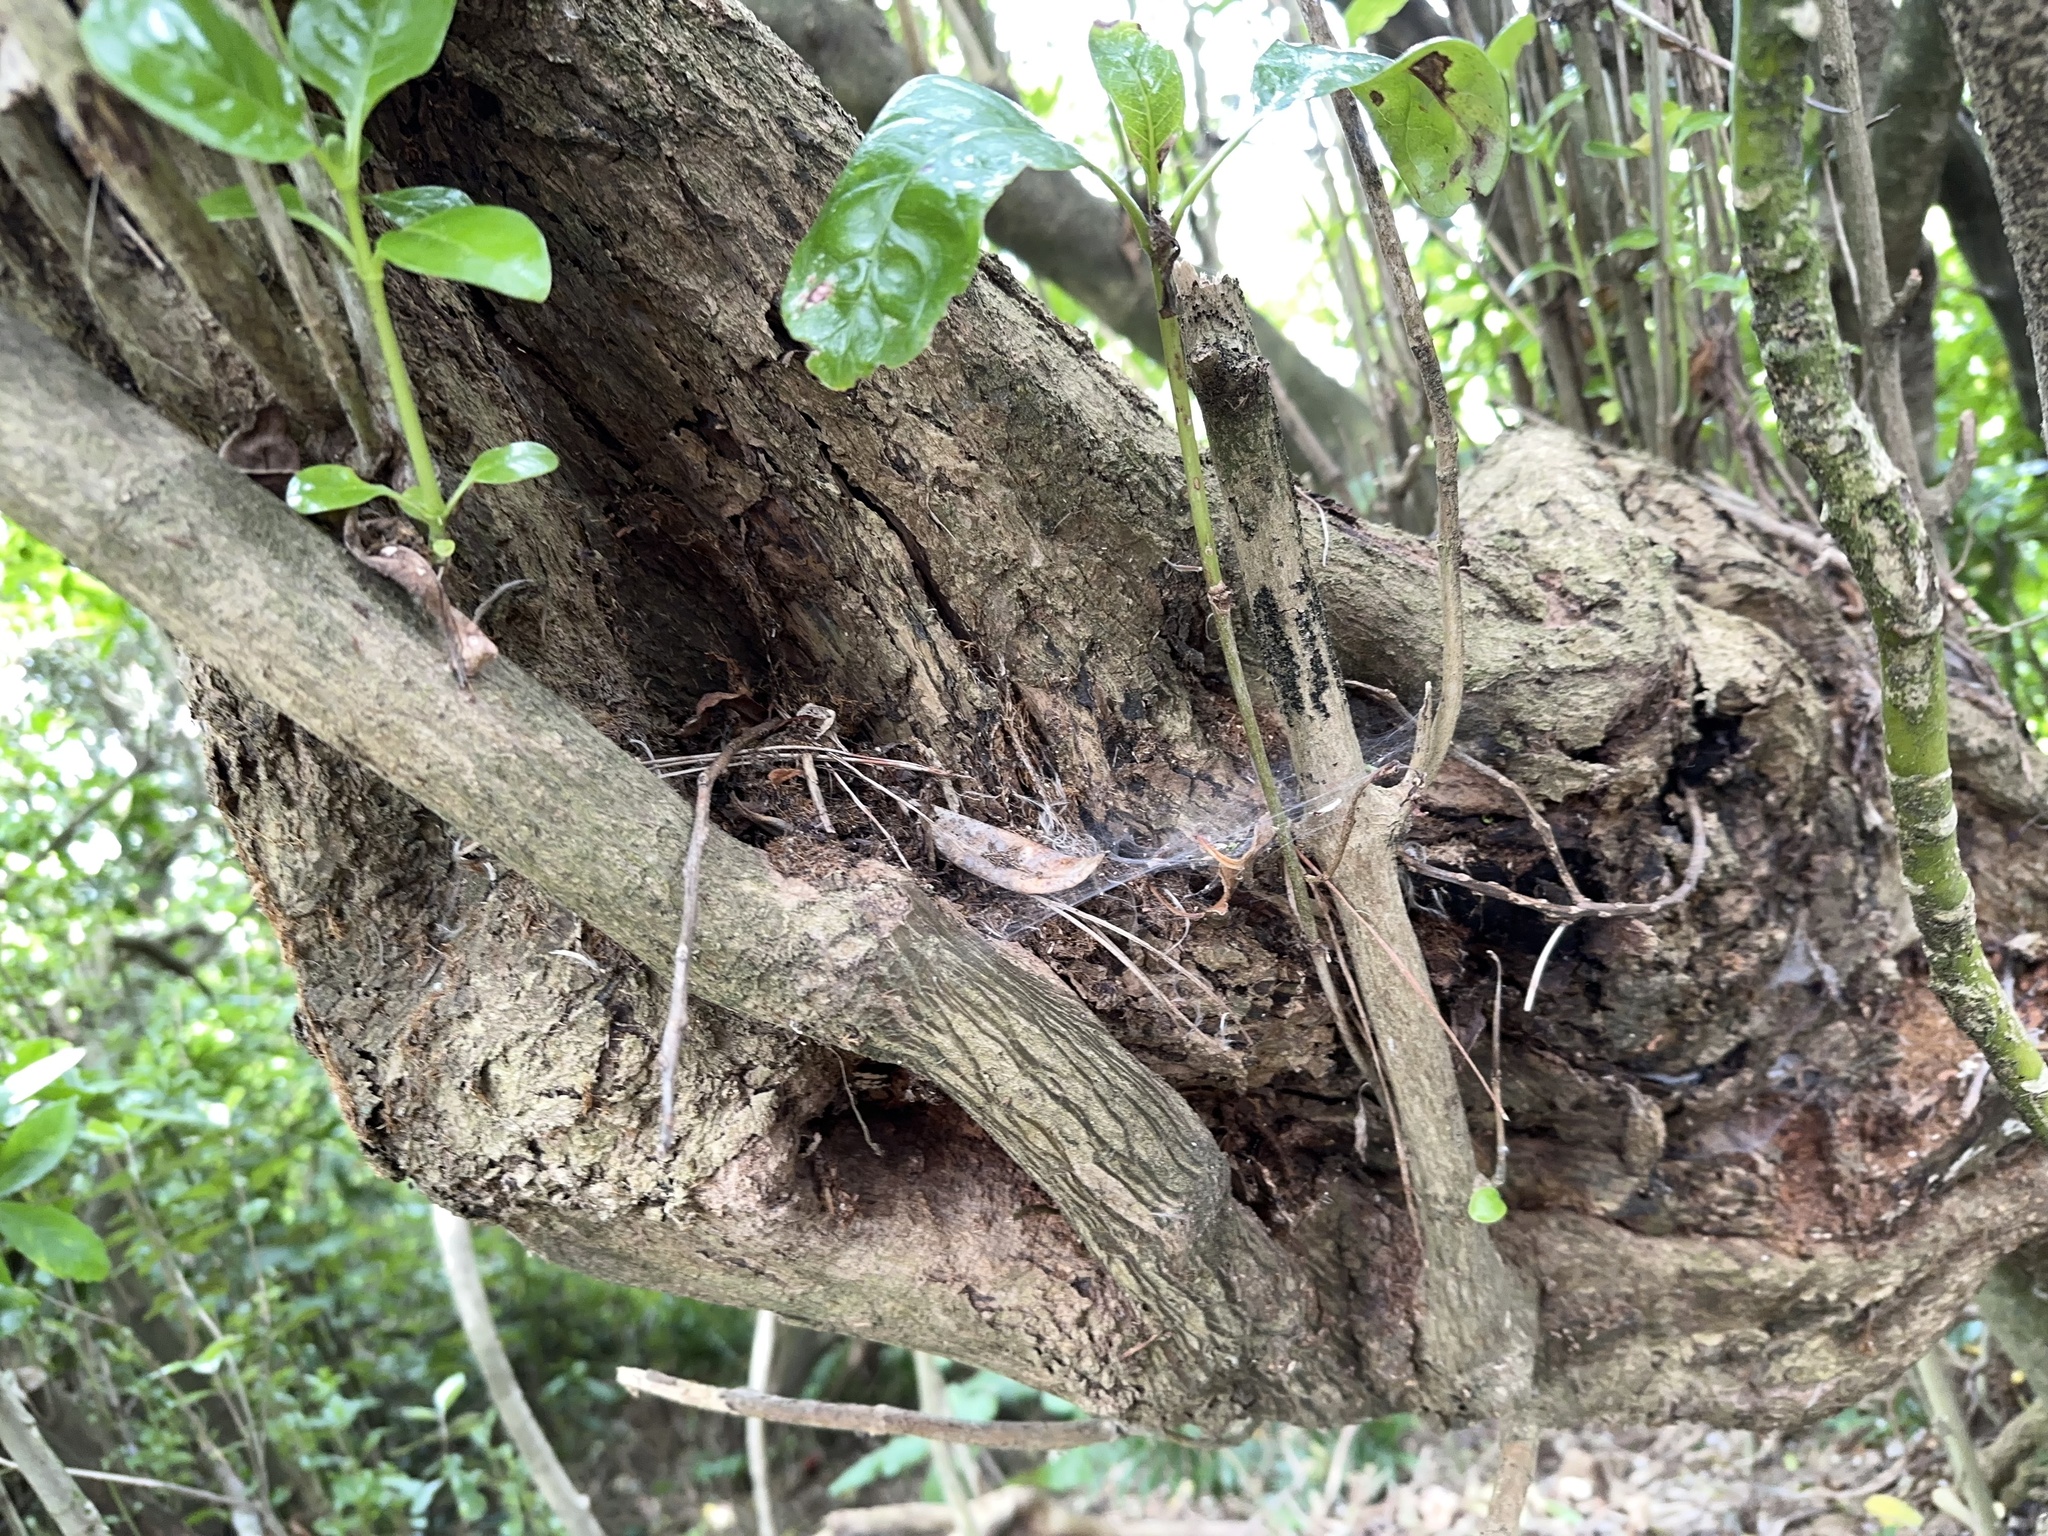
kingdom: Plantae
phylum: Tracheophyta
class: Magnoliopsida
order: Gentianales
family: Rubiaceae
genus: Coprosma
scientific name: Coprosma repens
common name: Tree bedstraw
